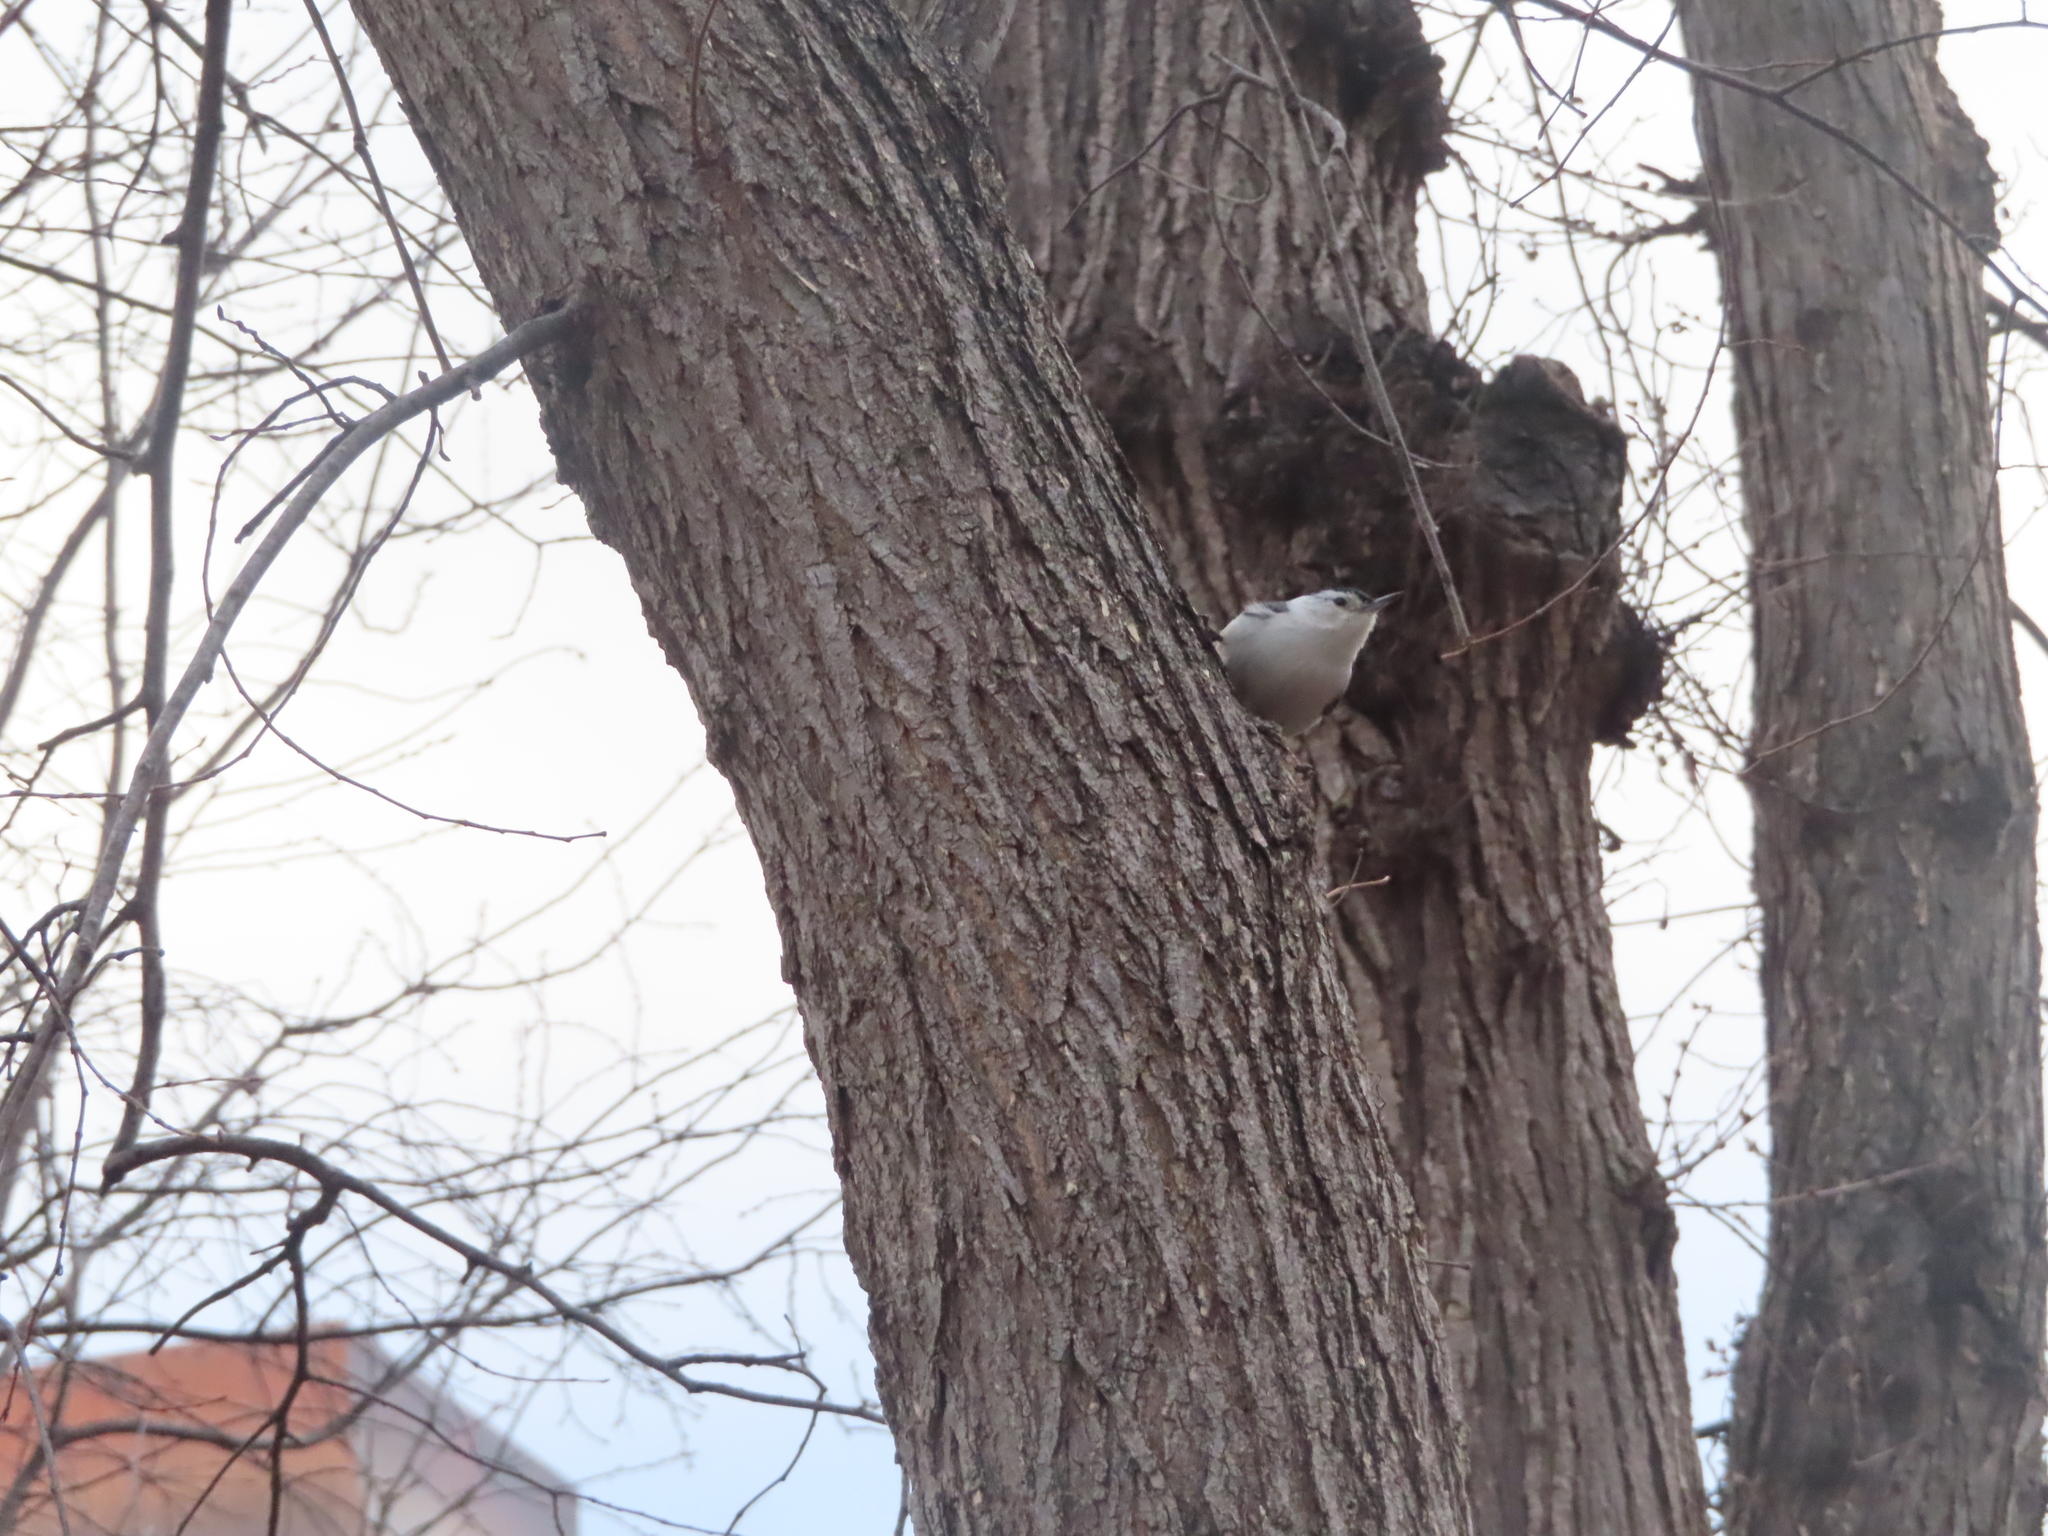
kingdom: Animalia
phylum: Chordata
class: Aves
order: Passeriformes
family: Sittidae
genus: Sitta
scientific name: Sitta carolinensis
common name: White-breasted nuthatch
